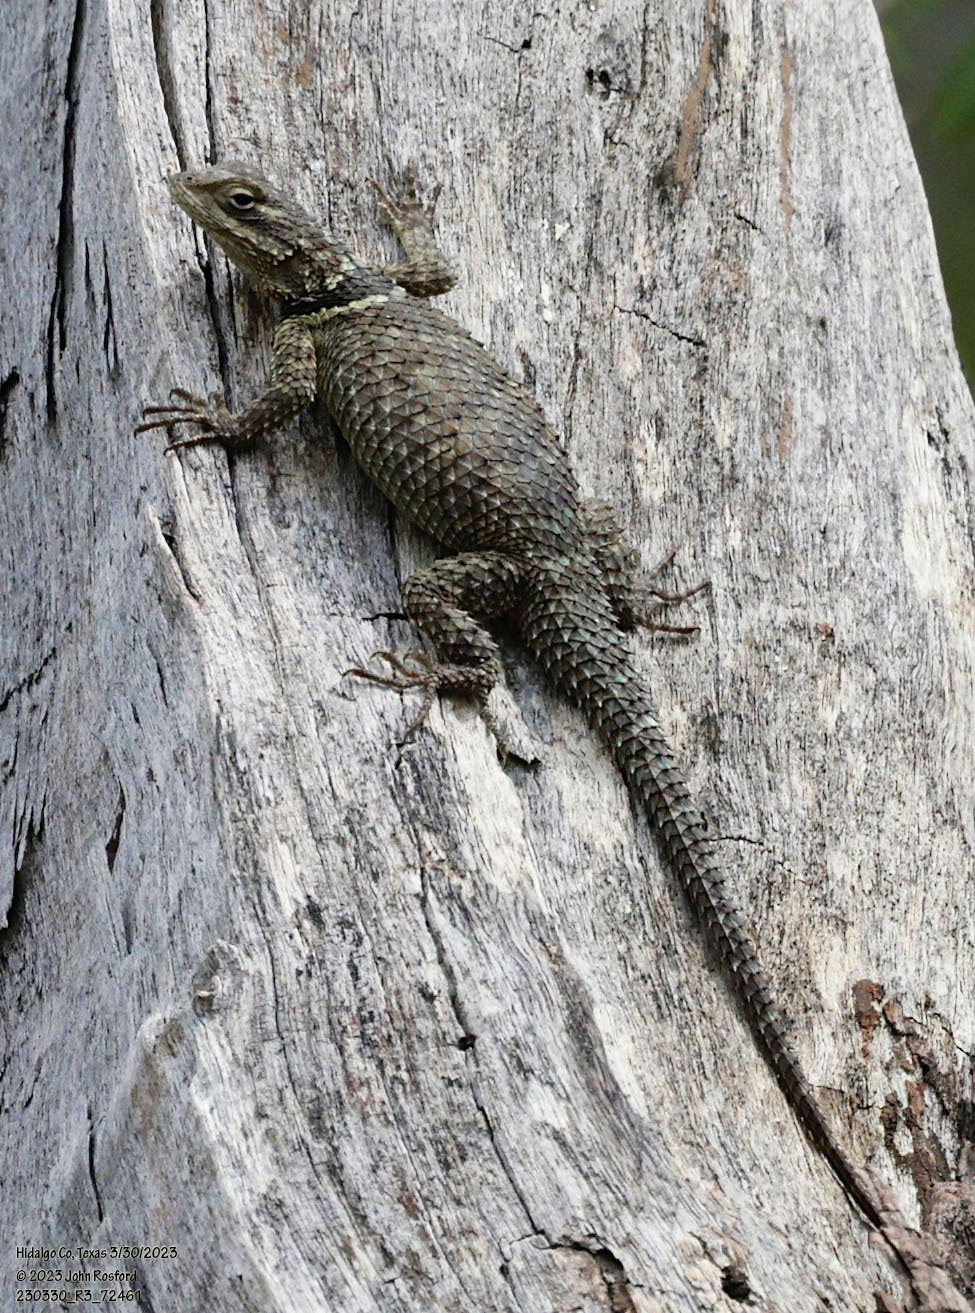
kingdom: Animalia
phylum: Chordata
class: Squamata
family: Phrynosomatidae
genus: Sceloporus
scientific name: Sceloporus cyanogenys
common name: Blue spiny lizard
